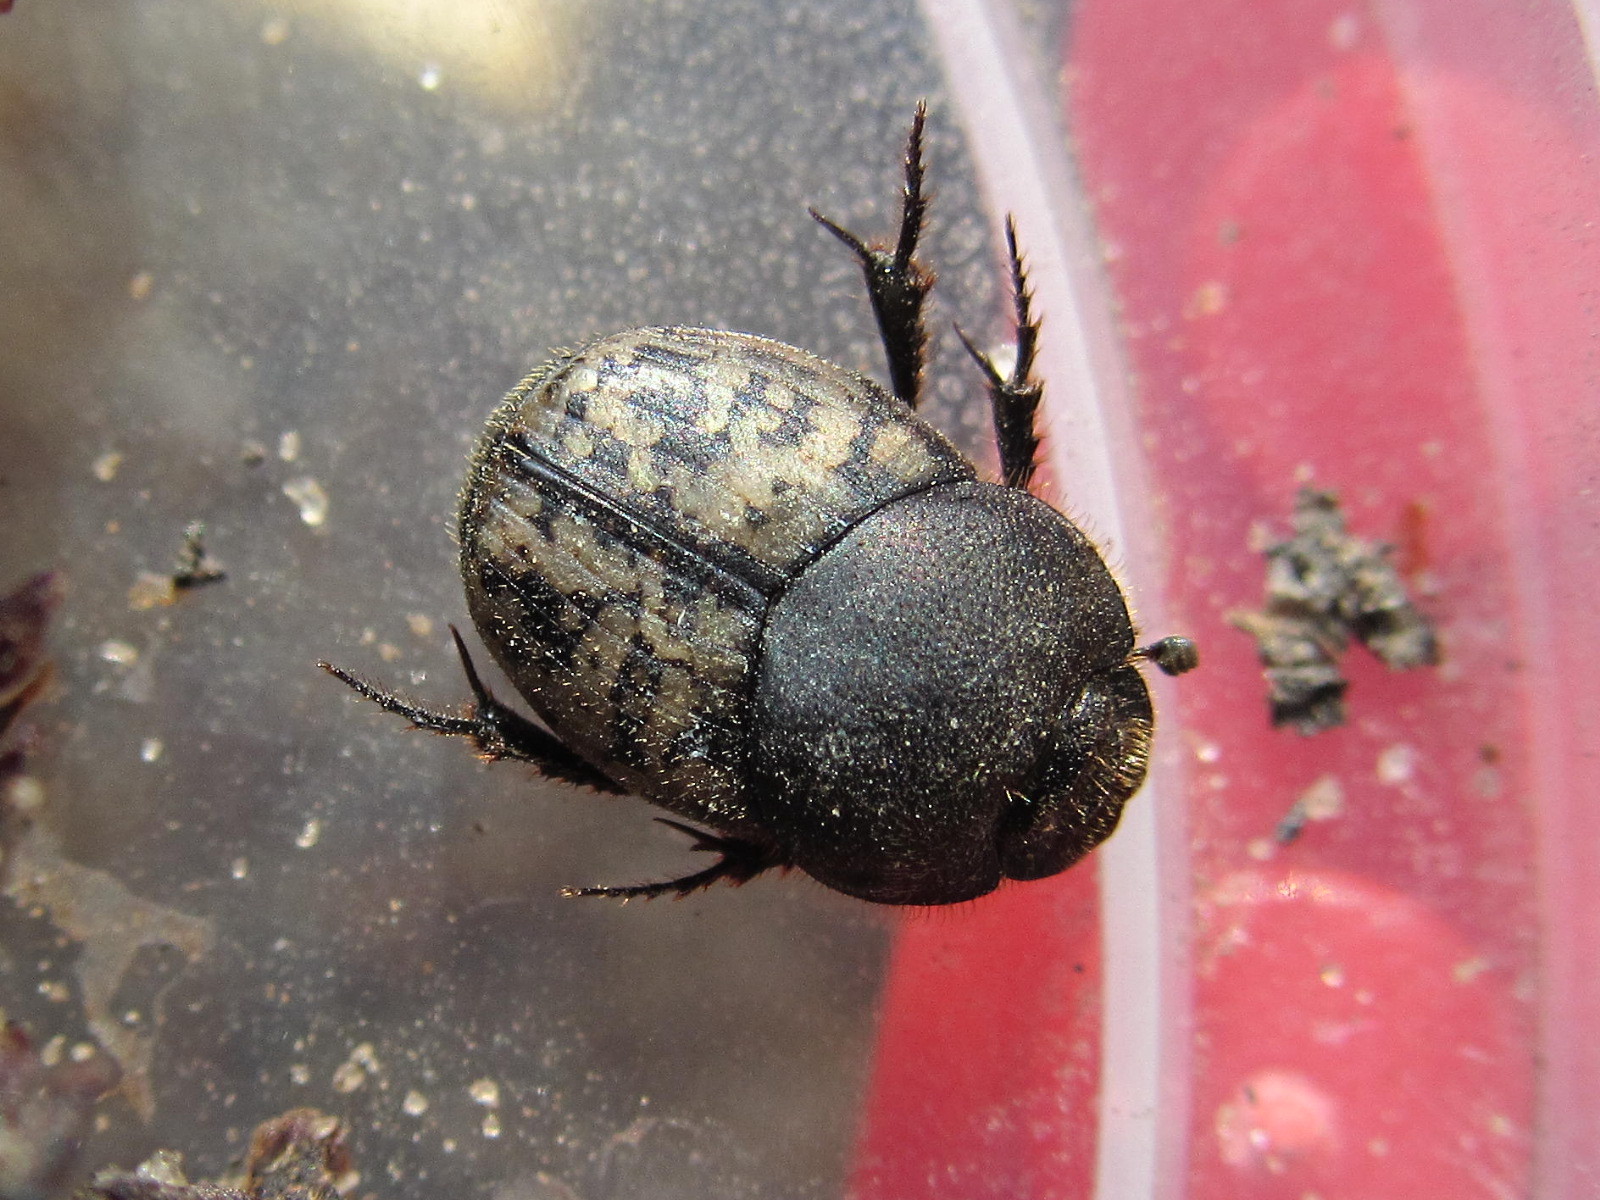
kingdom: Animalia
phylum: Arthropoda
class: Insecta
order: Coleoptera
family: Scarabaeidae
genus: Onthophagus
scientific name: Onthophagus nuchicornis
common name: Mottled dung beetle
